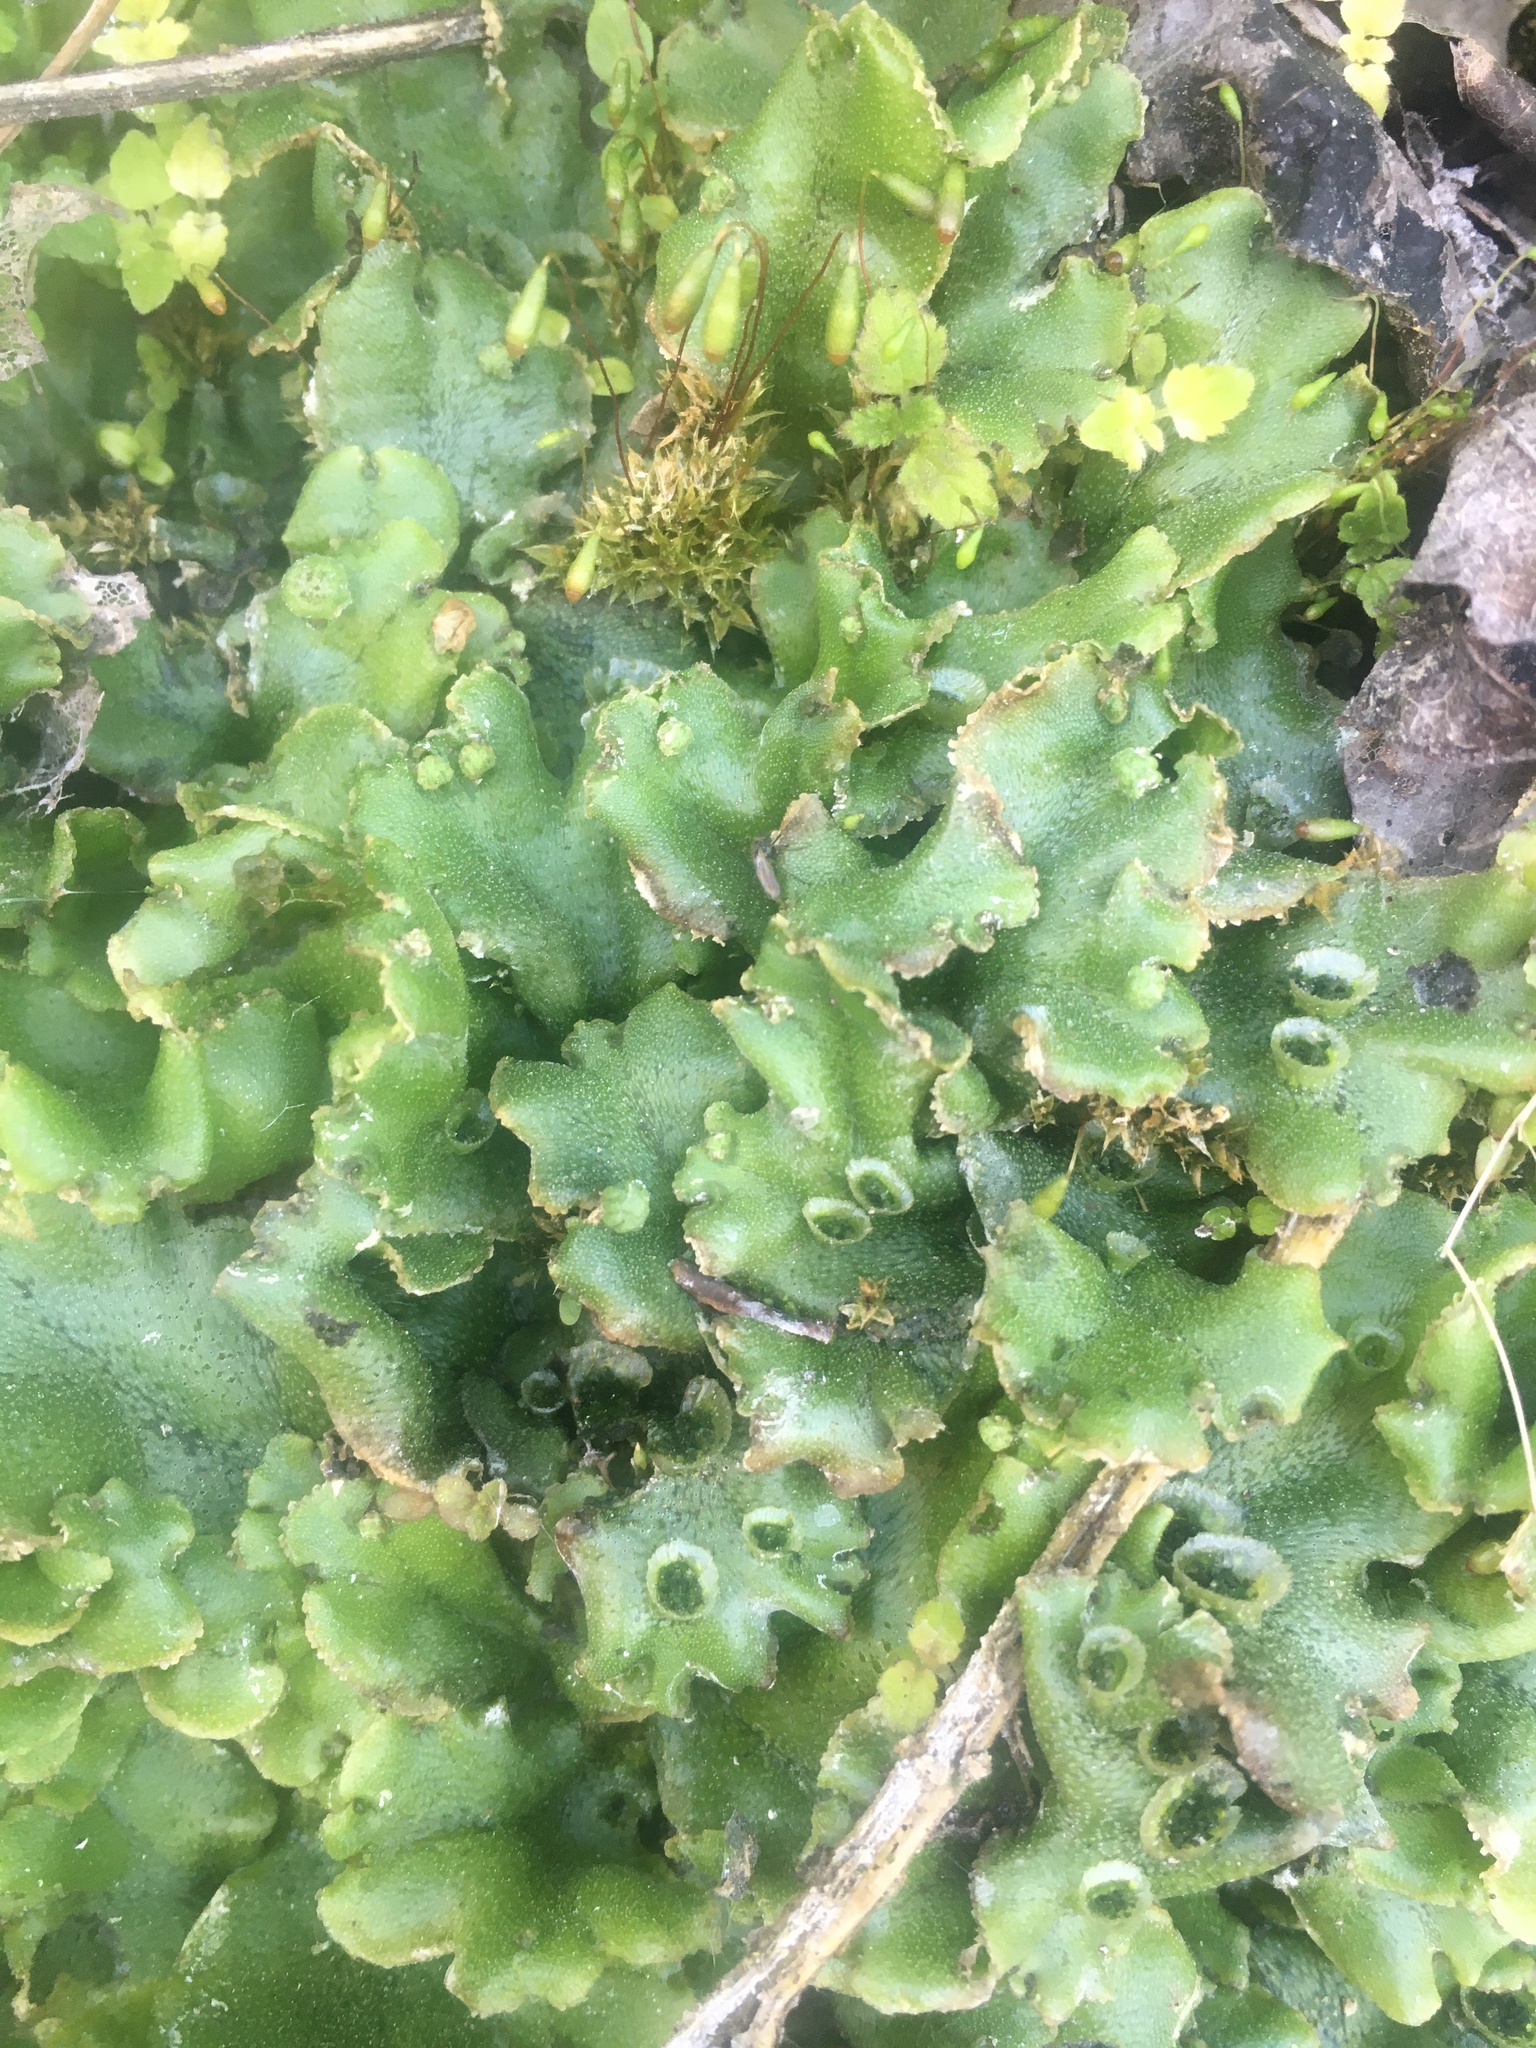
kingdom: Plantae
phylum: Marchantiophyta
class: Marchantiopsida
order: Marchantiales
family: Marchantiaceae
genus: Marchantia
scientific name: Marchantia polymorpha
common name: Common liverwort
